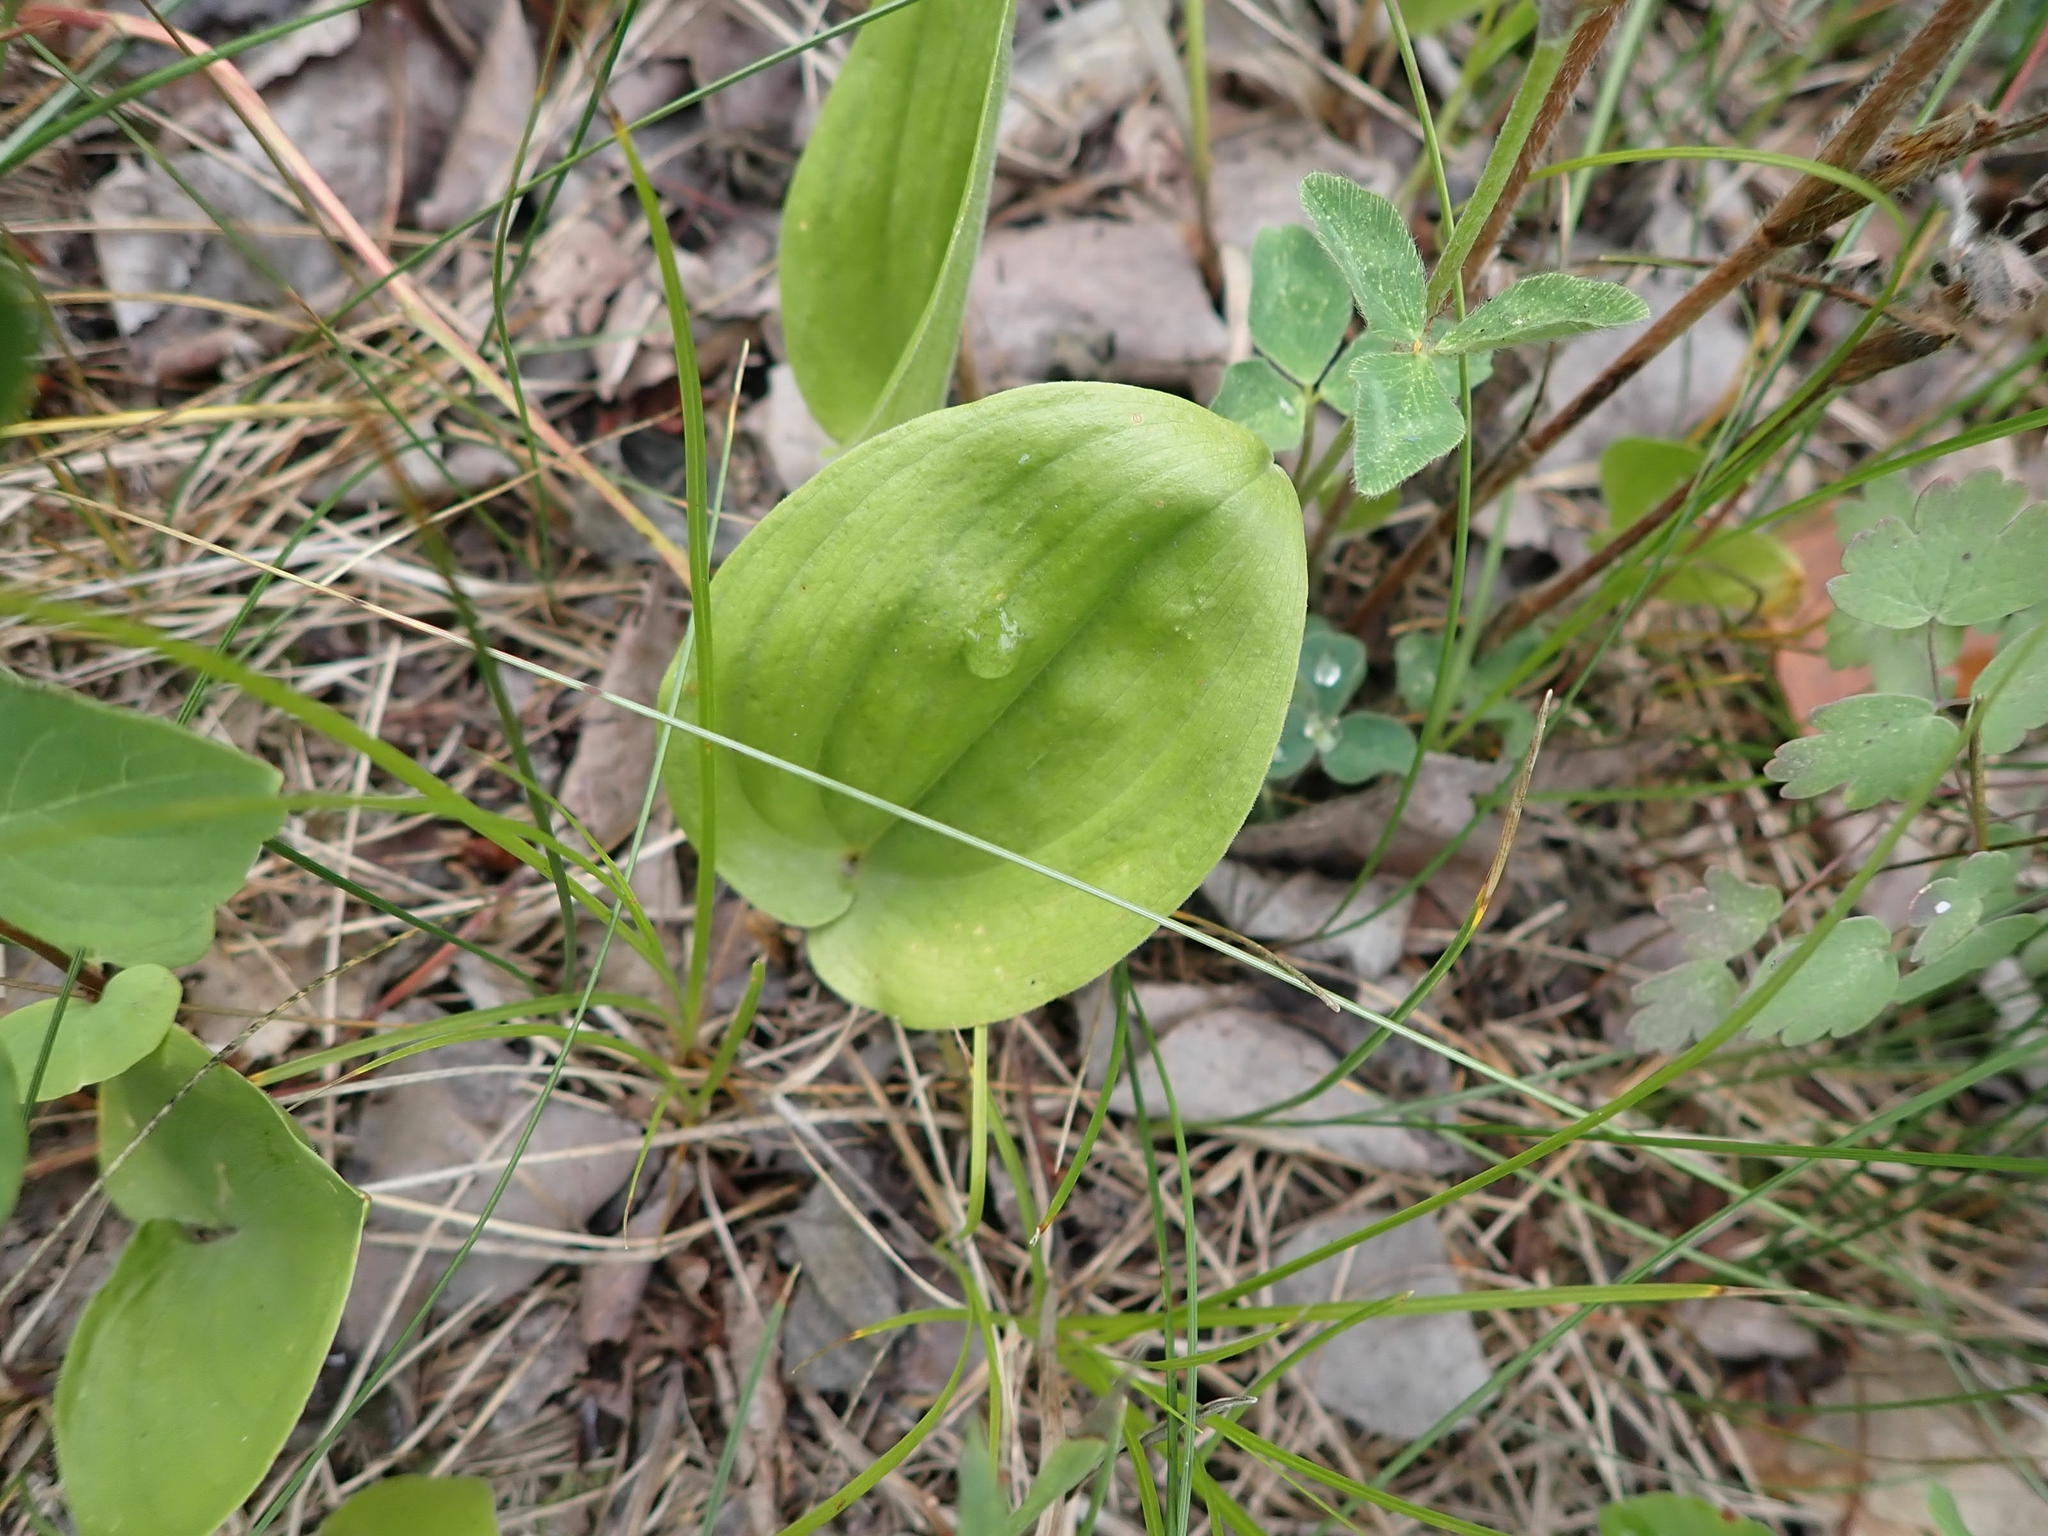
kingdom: Plantae
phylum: Tracheophyta
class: Liliopsida
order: Asparagales
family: Asparagaceae
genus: Maianthemum
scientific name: Maianthemum canadense
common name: False lily-of-the-valley
